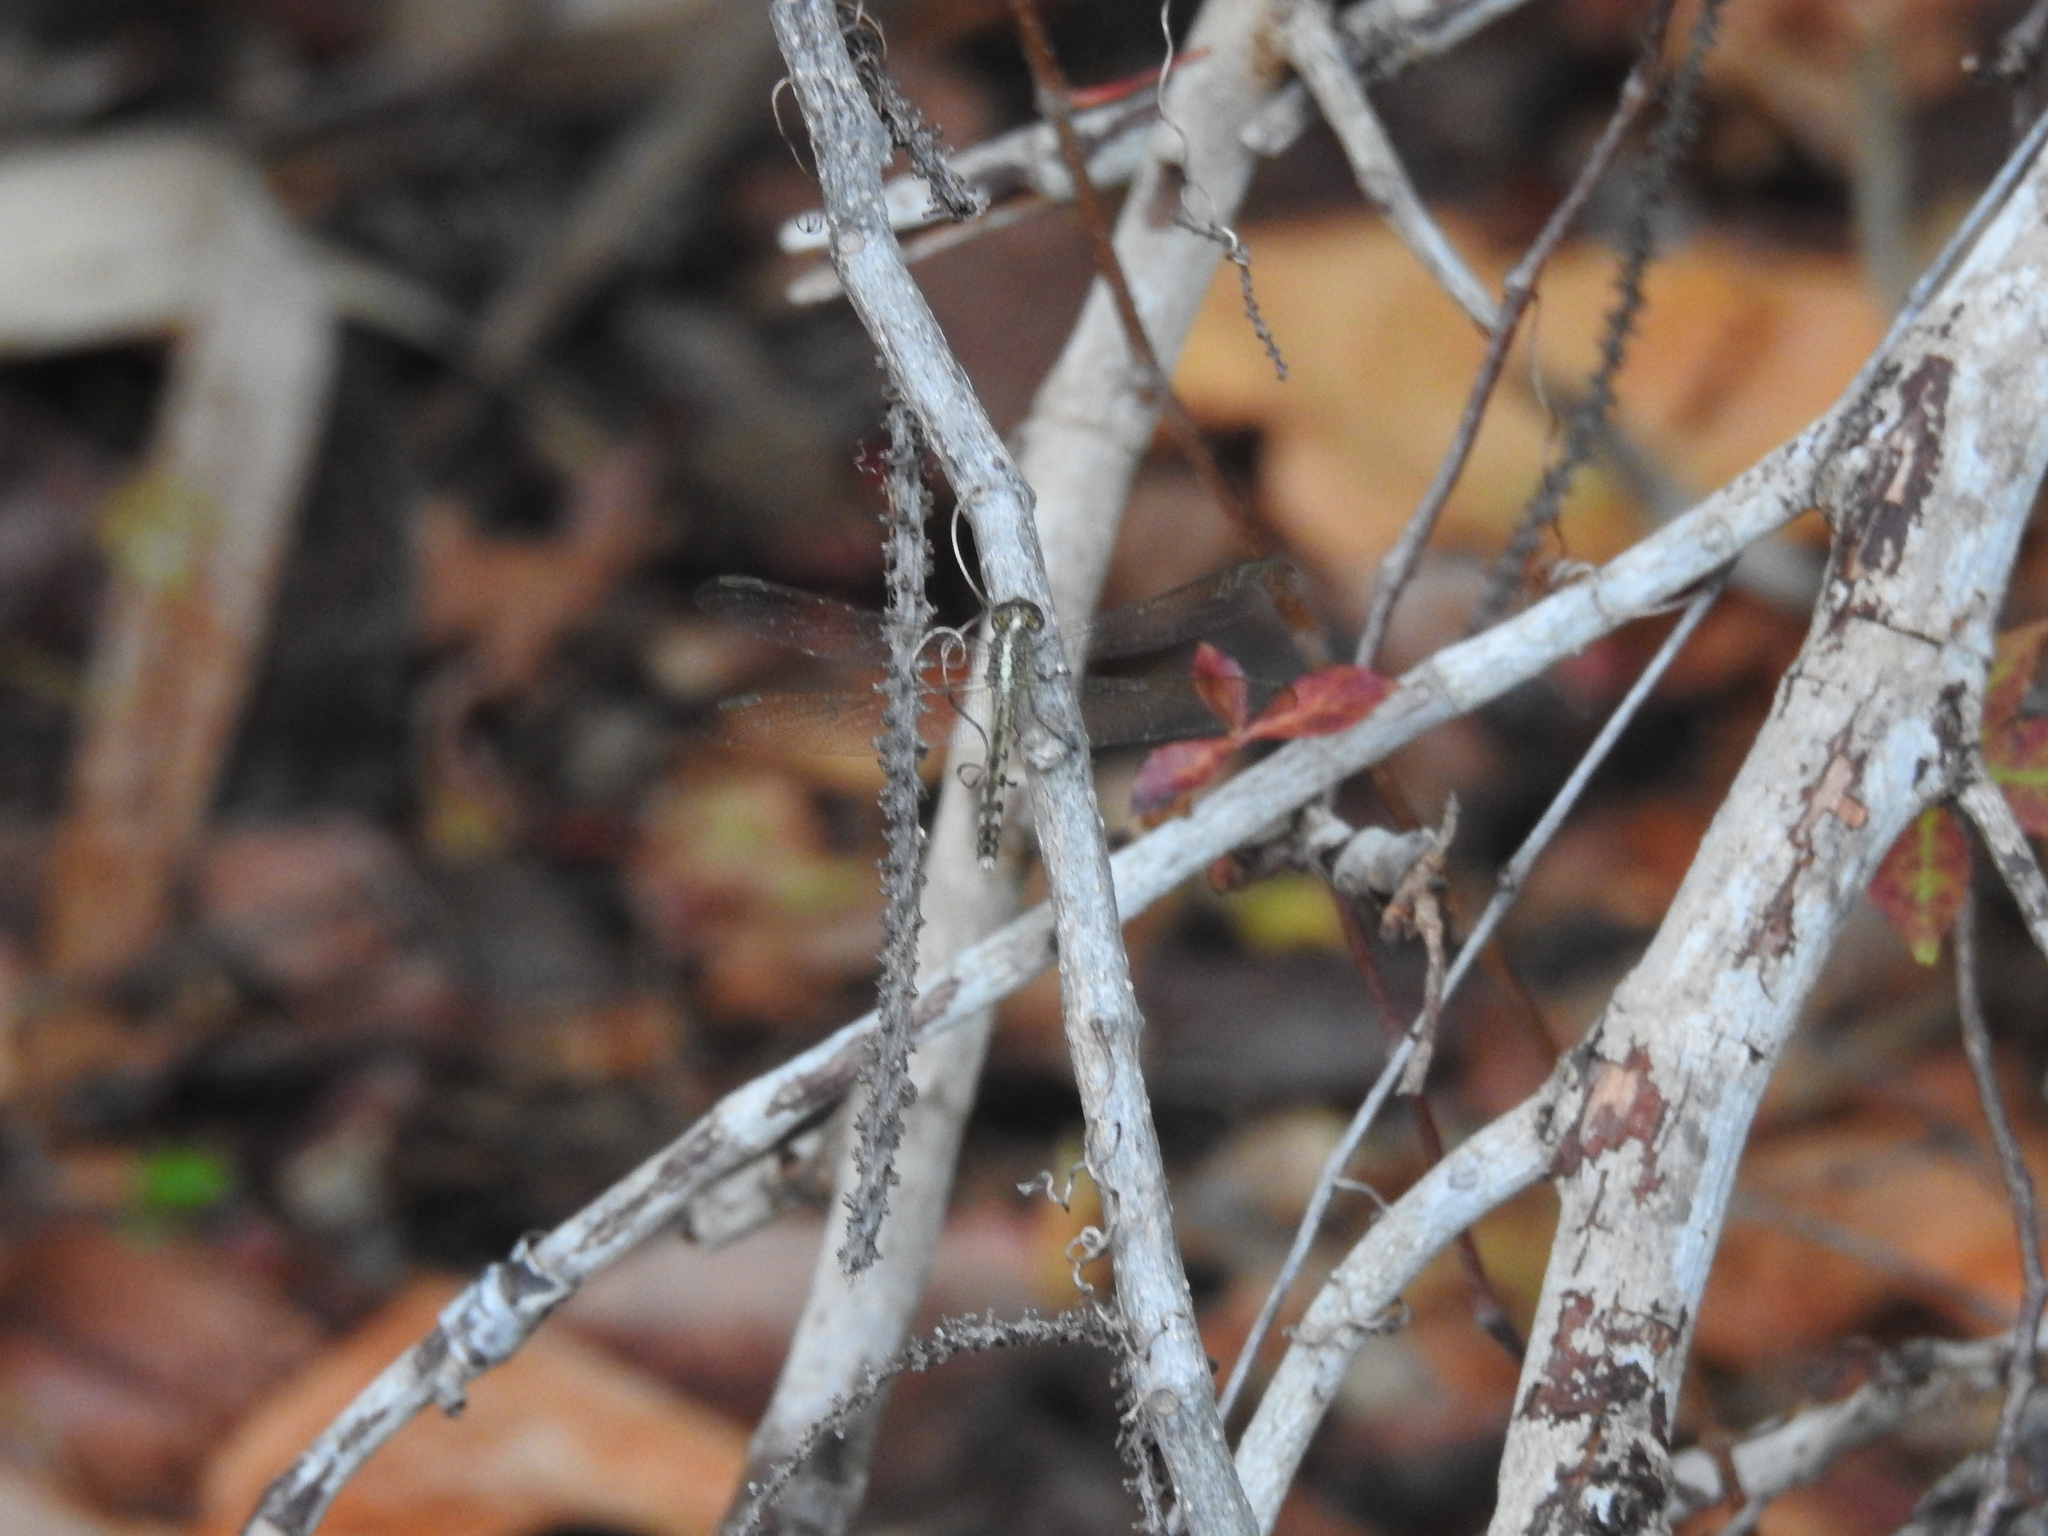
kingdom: Animalia
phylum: Arthropoda
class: Insecta
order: Odonata
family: Libellulidae
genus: Erythrodiplax
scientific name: Erythrodiplax umbrata
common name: Band-winged dragonlet
